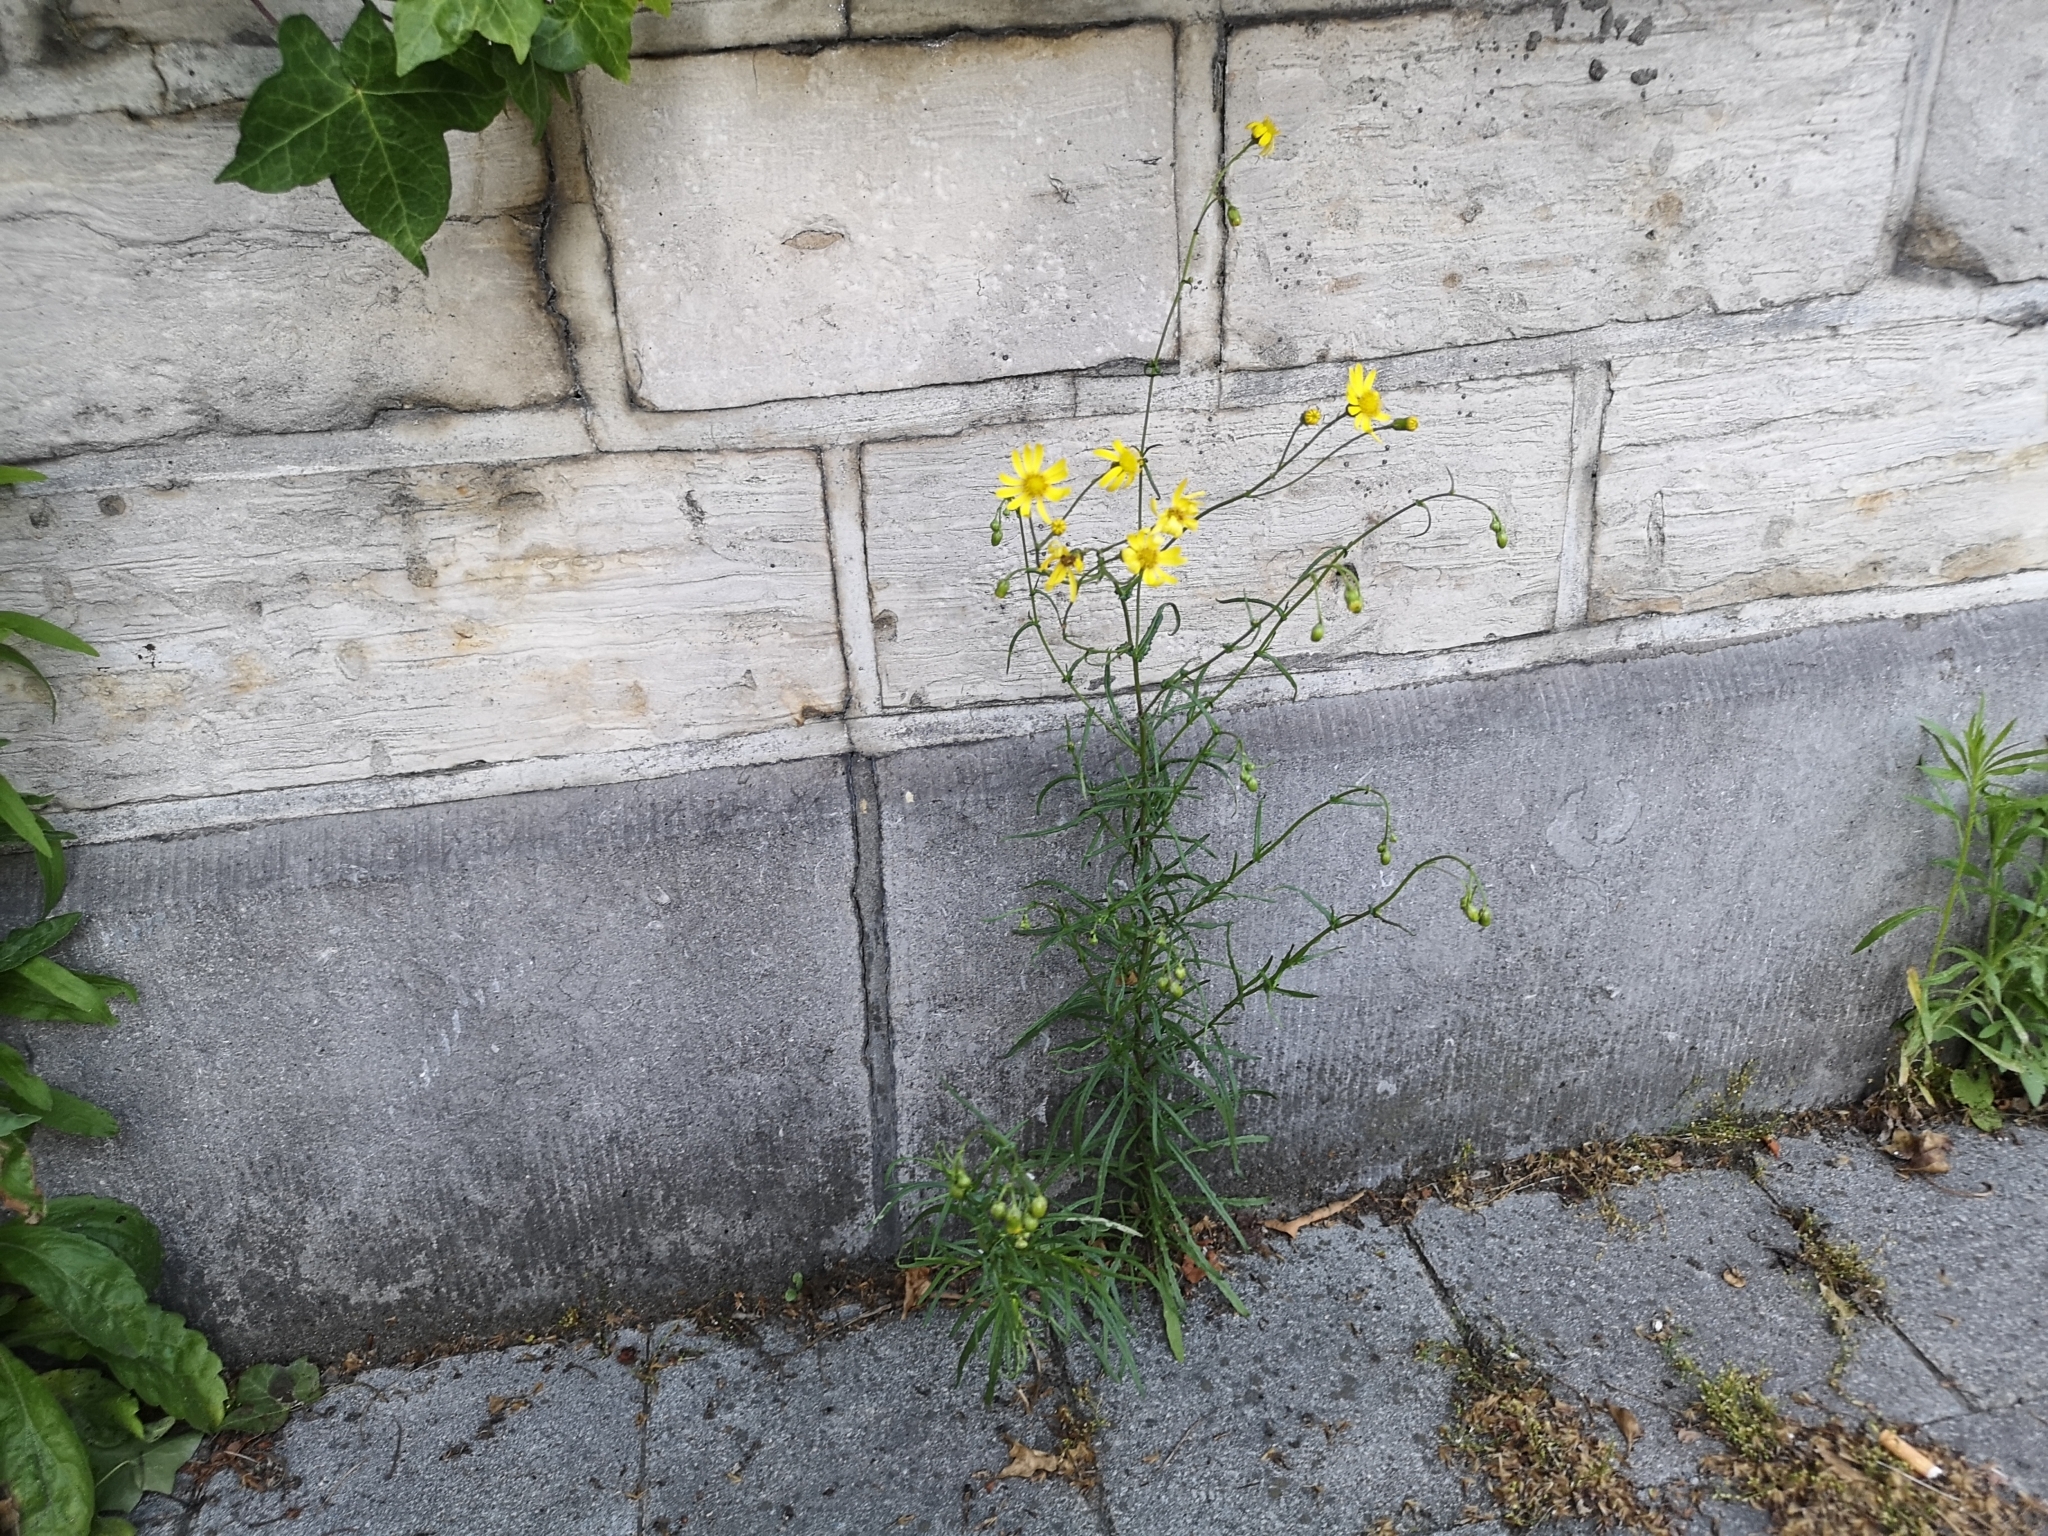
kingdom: Plantae
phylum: Tracheophyta
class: Magnoliopsida
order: Asterales
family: Asteraceae
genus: Senecio
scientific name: Senecio inaequidens
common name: Narrow-leaved ragwort
